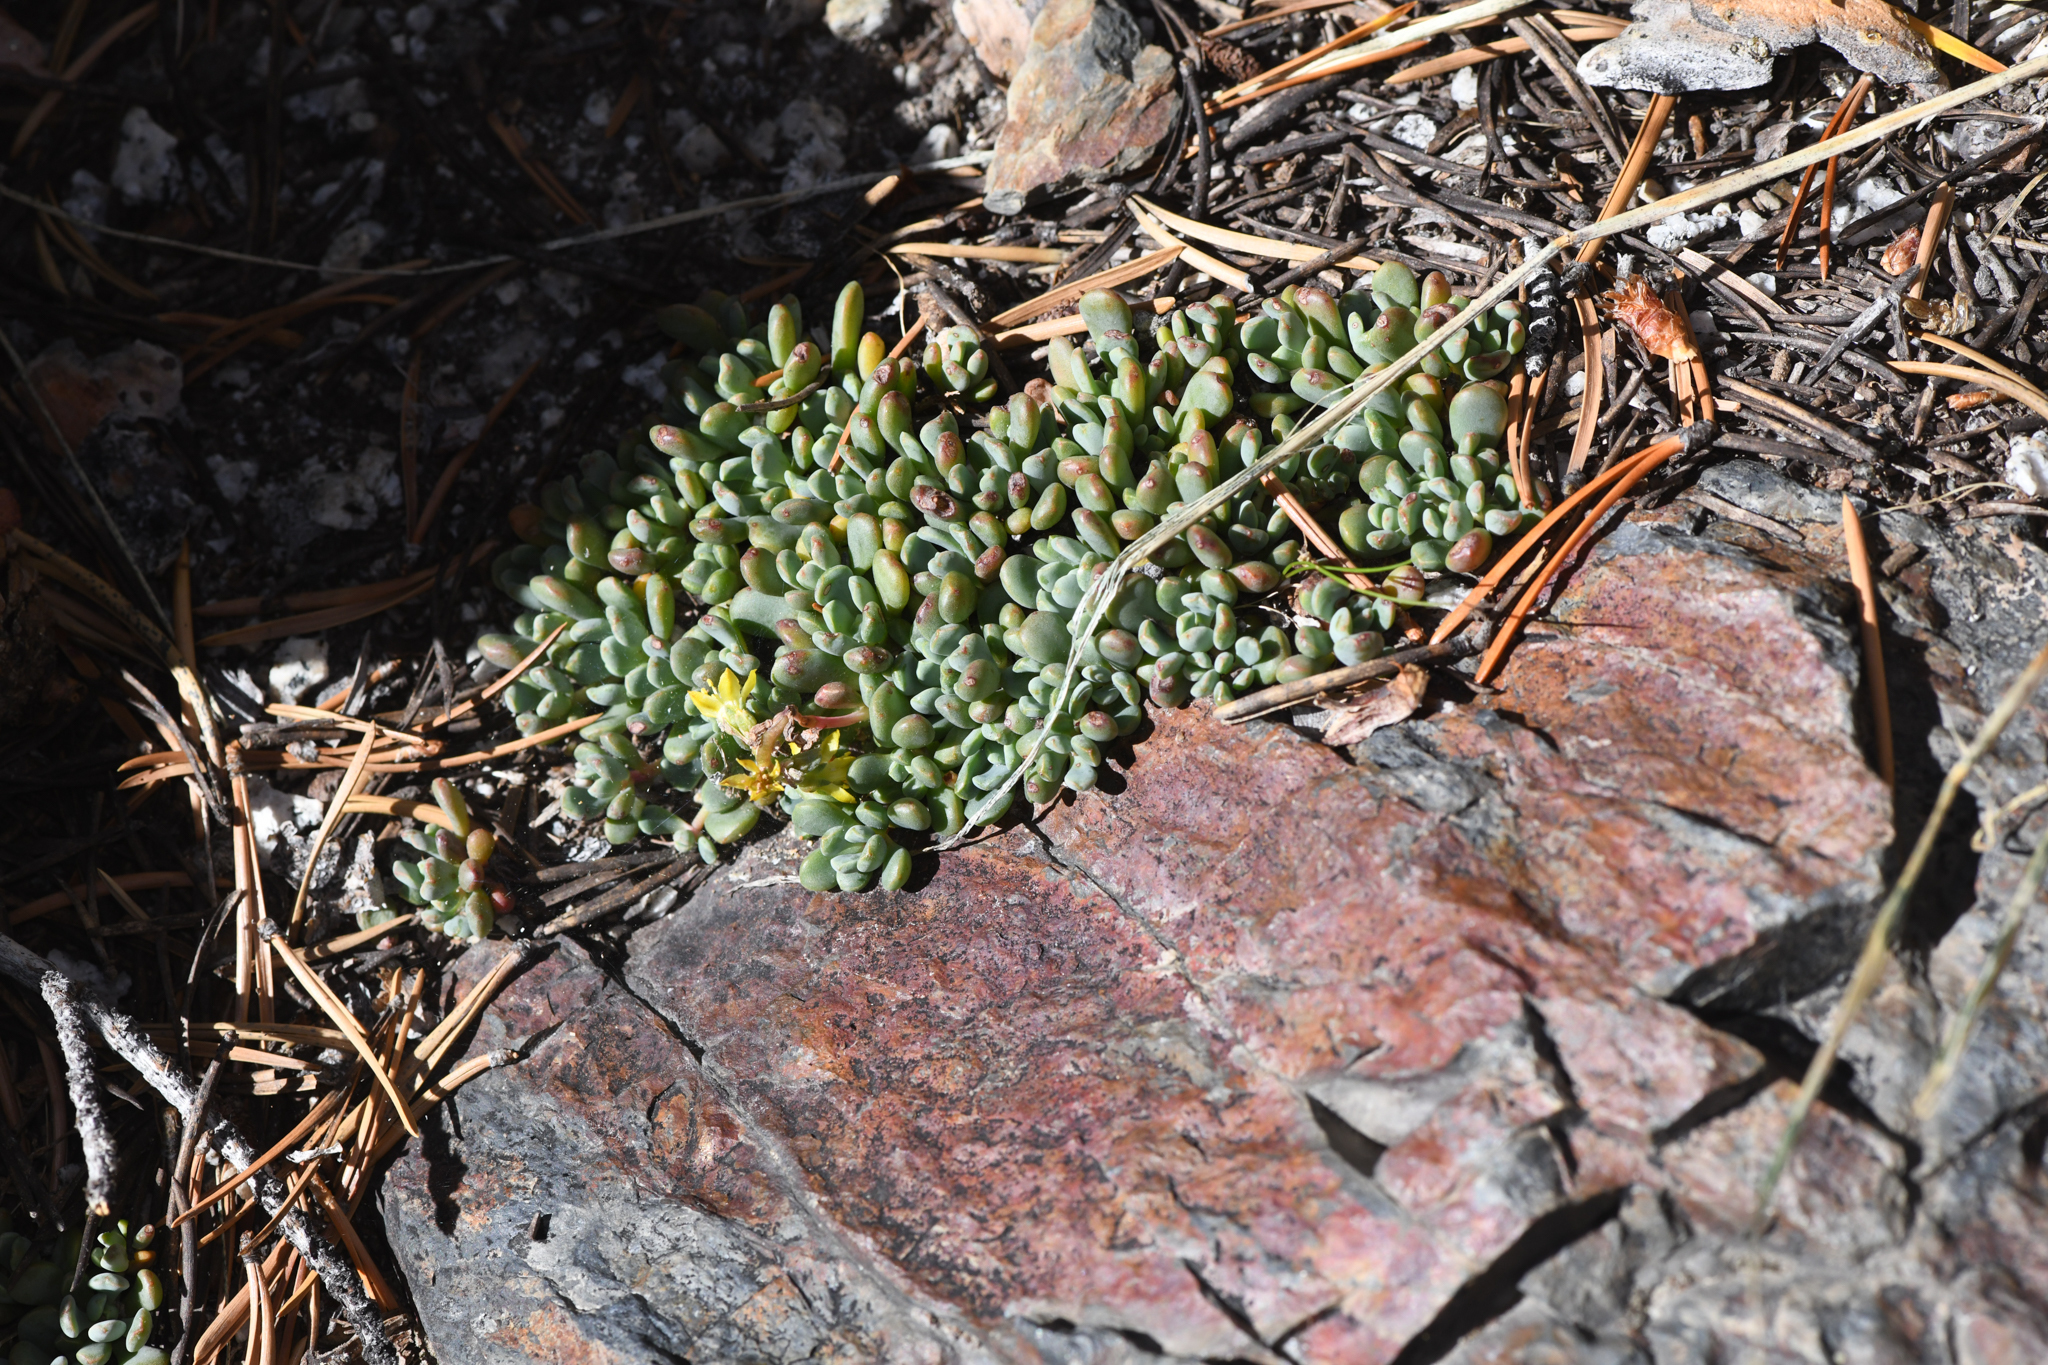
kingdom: Plantae
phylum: Tracheophyta
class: Magnoliopsida
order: Saxifragales
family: Crassulaceae
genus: Sedum
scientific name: Sedum obtusatum
